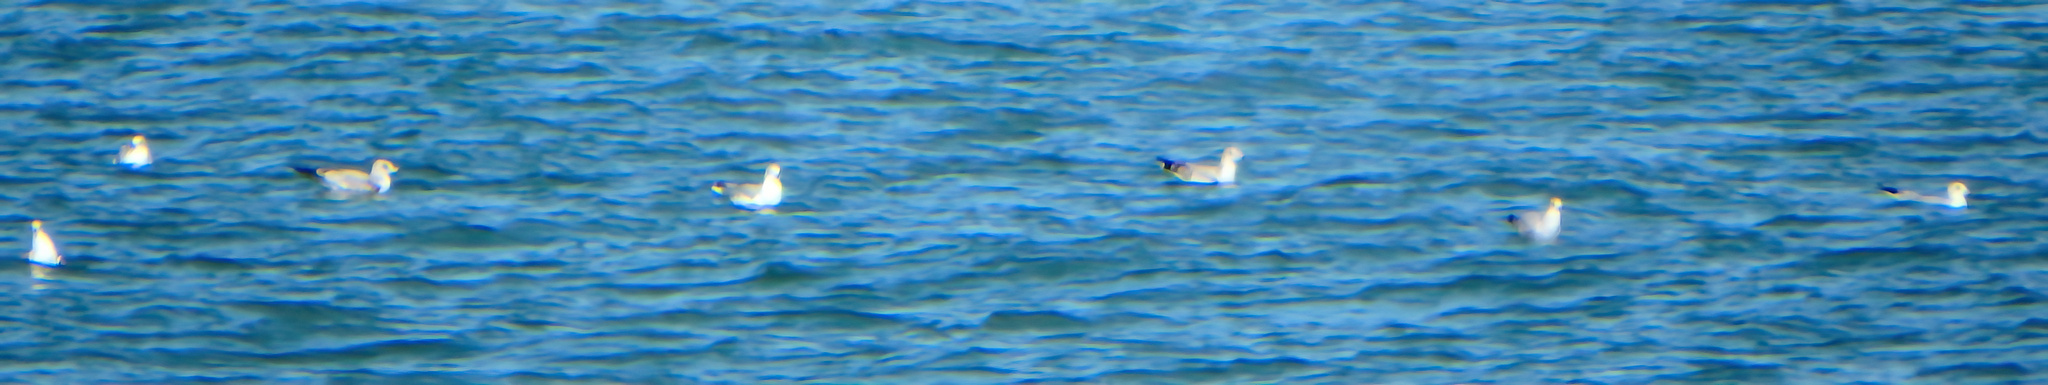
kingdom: Animalia
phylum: Chordata
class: Aves
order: Charadriiformes
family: Laridae
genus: Larus
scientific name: Larus delawarensis
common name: Ring-billed gull
